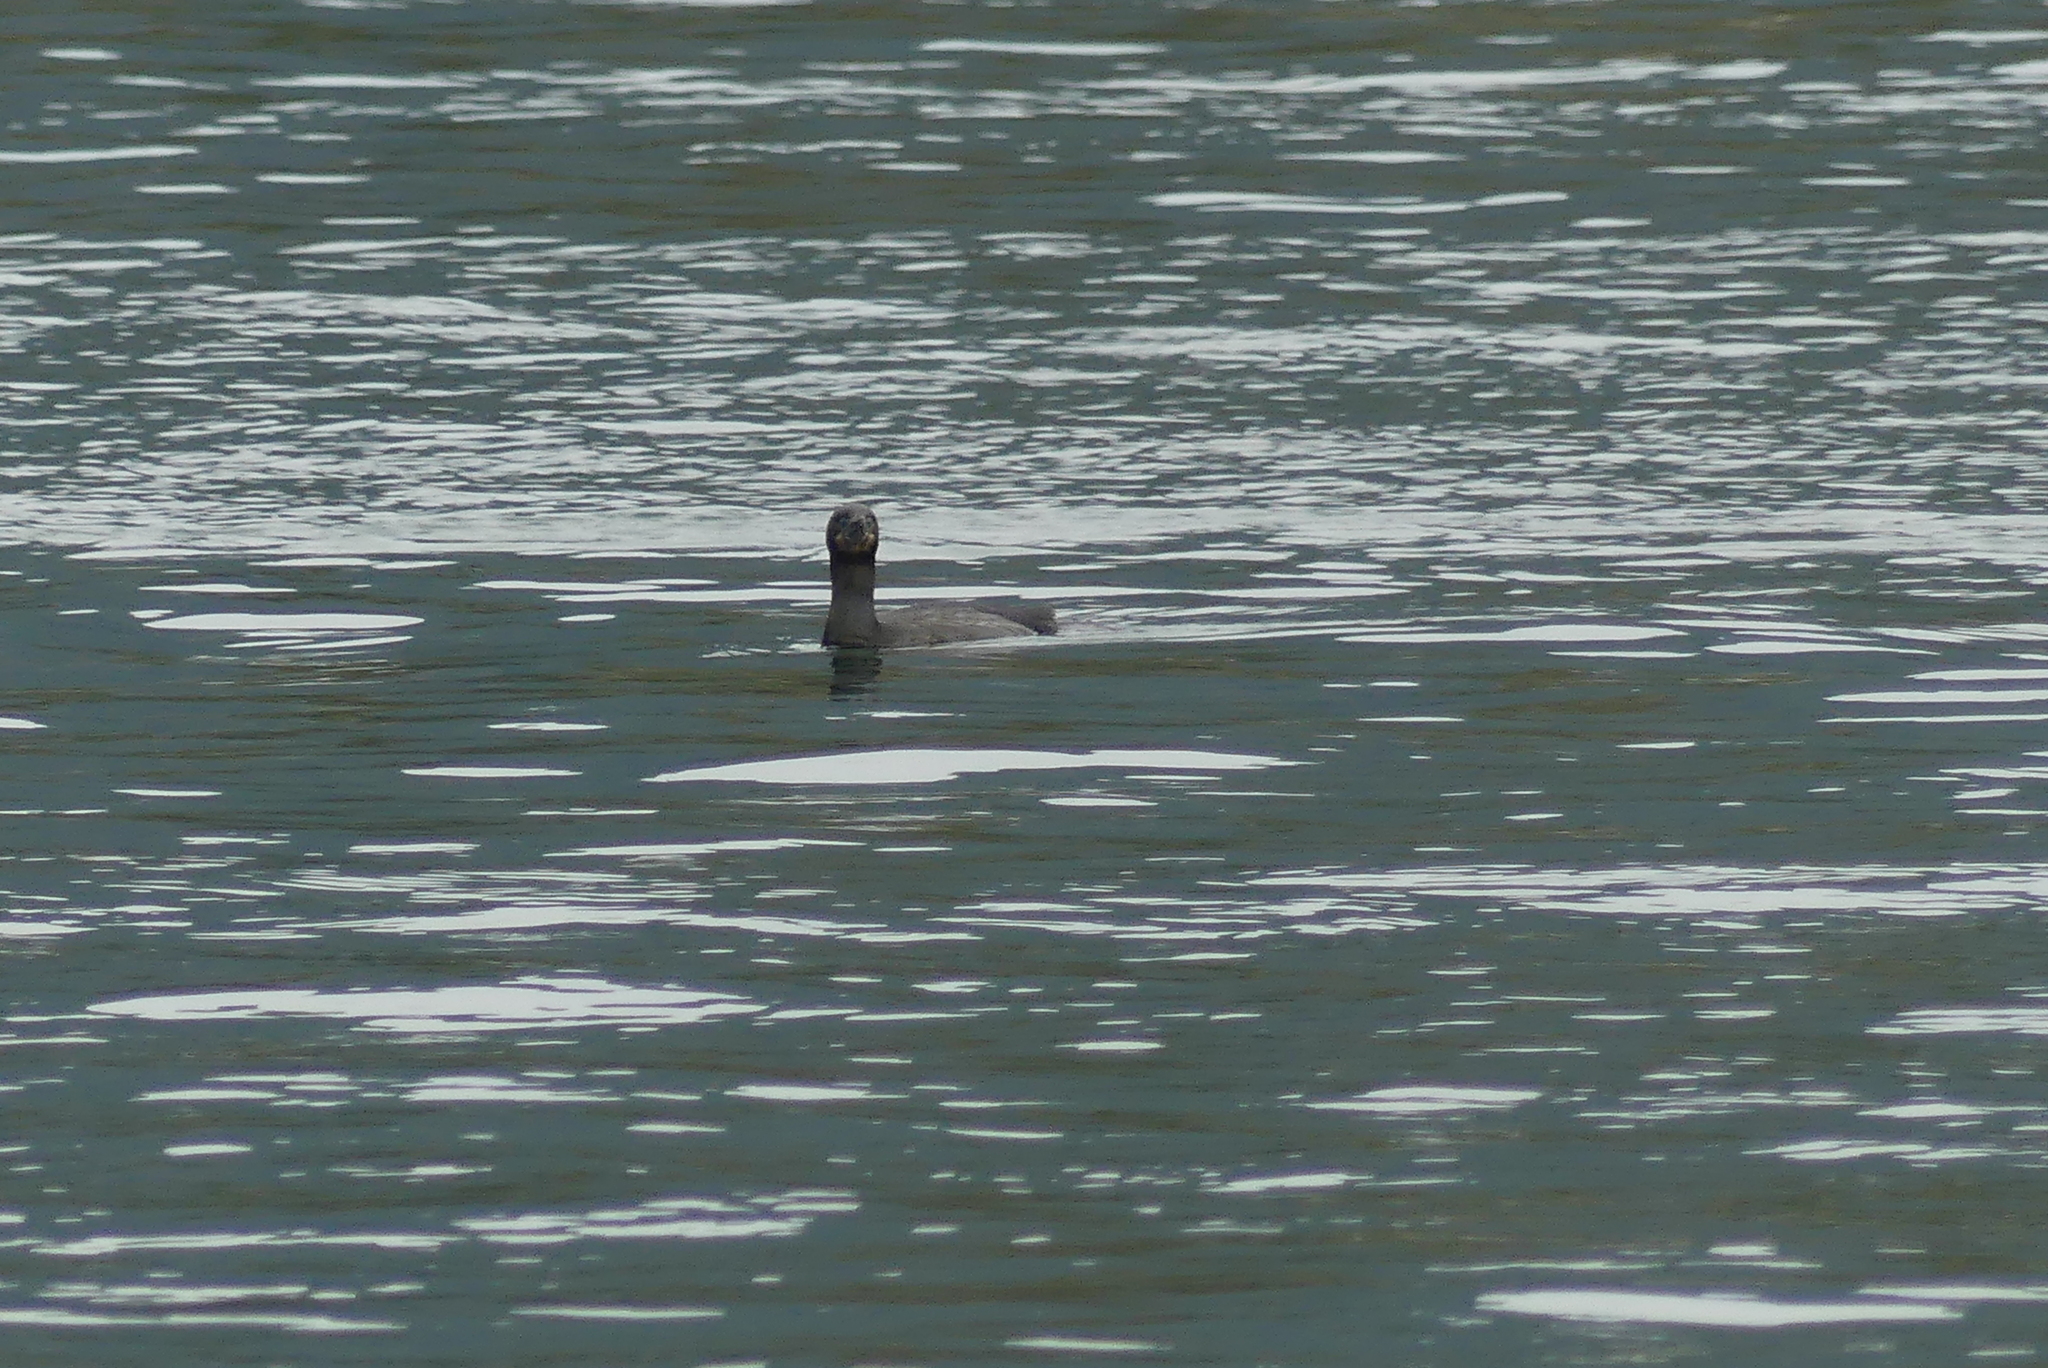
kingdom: Animalia
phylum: Chordata
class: Aves
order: Suliformes
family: Phalacrocoracidae
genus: Urile
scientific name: Urile penicillatus
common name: Brandt's cormorant
